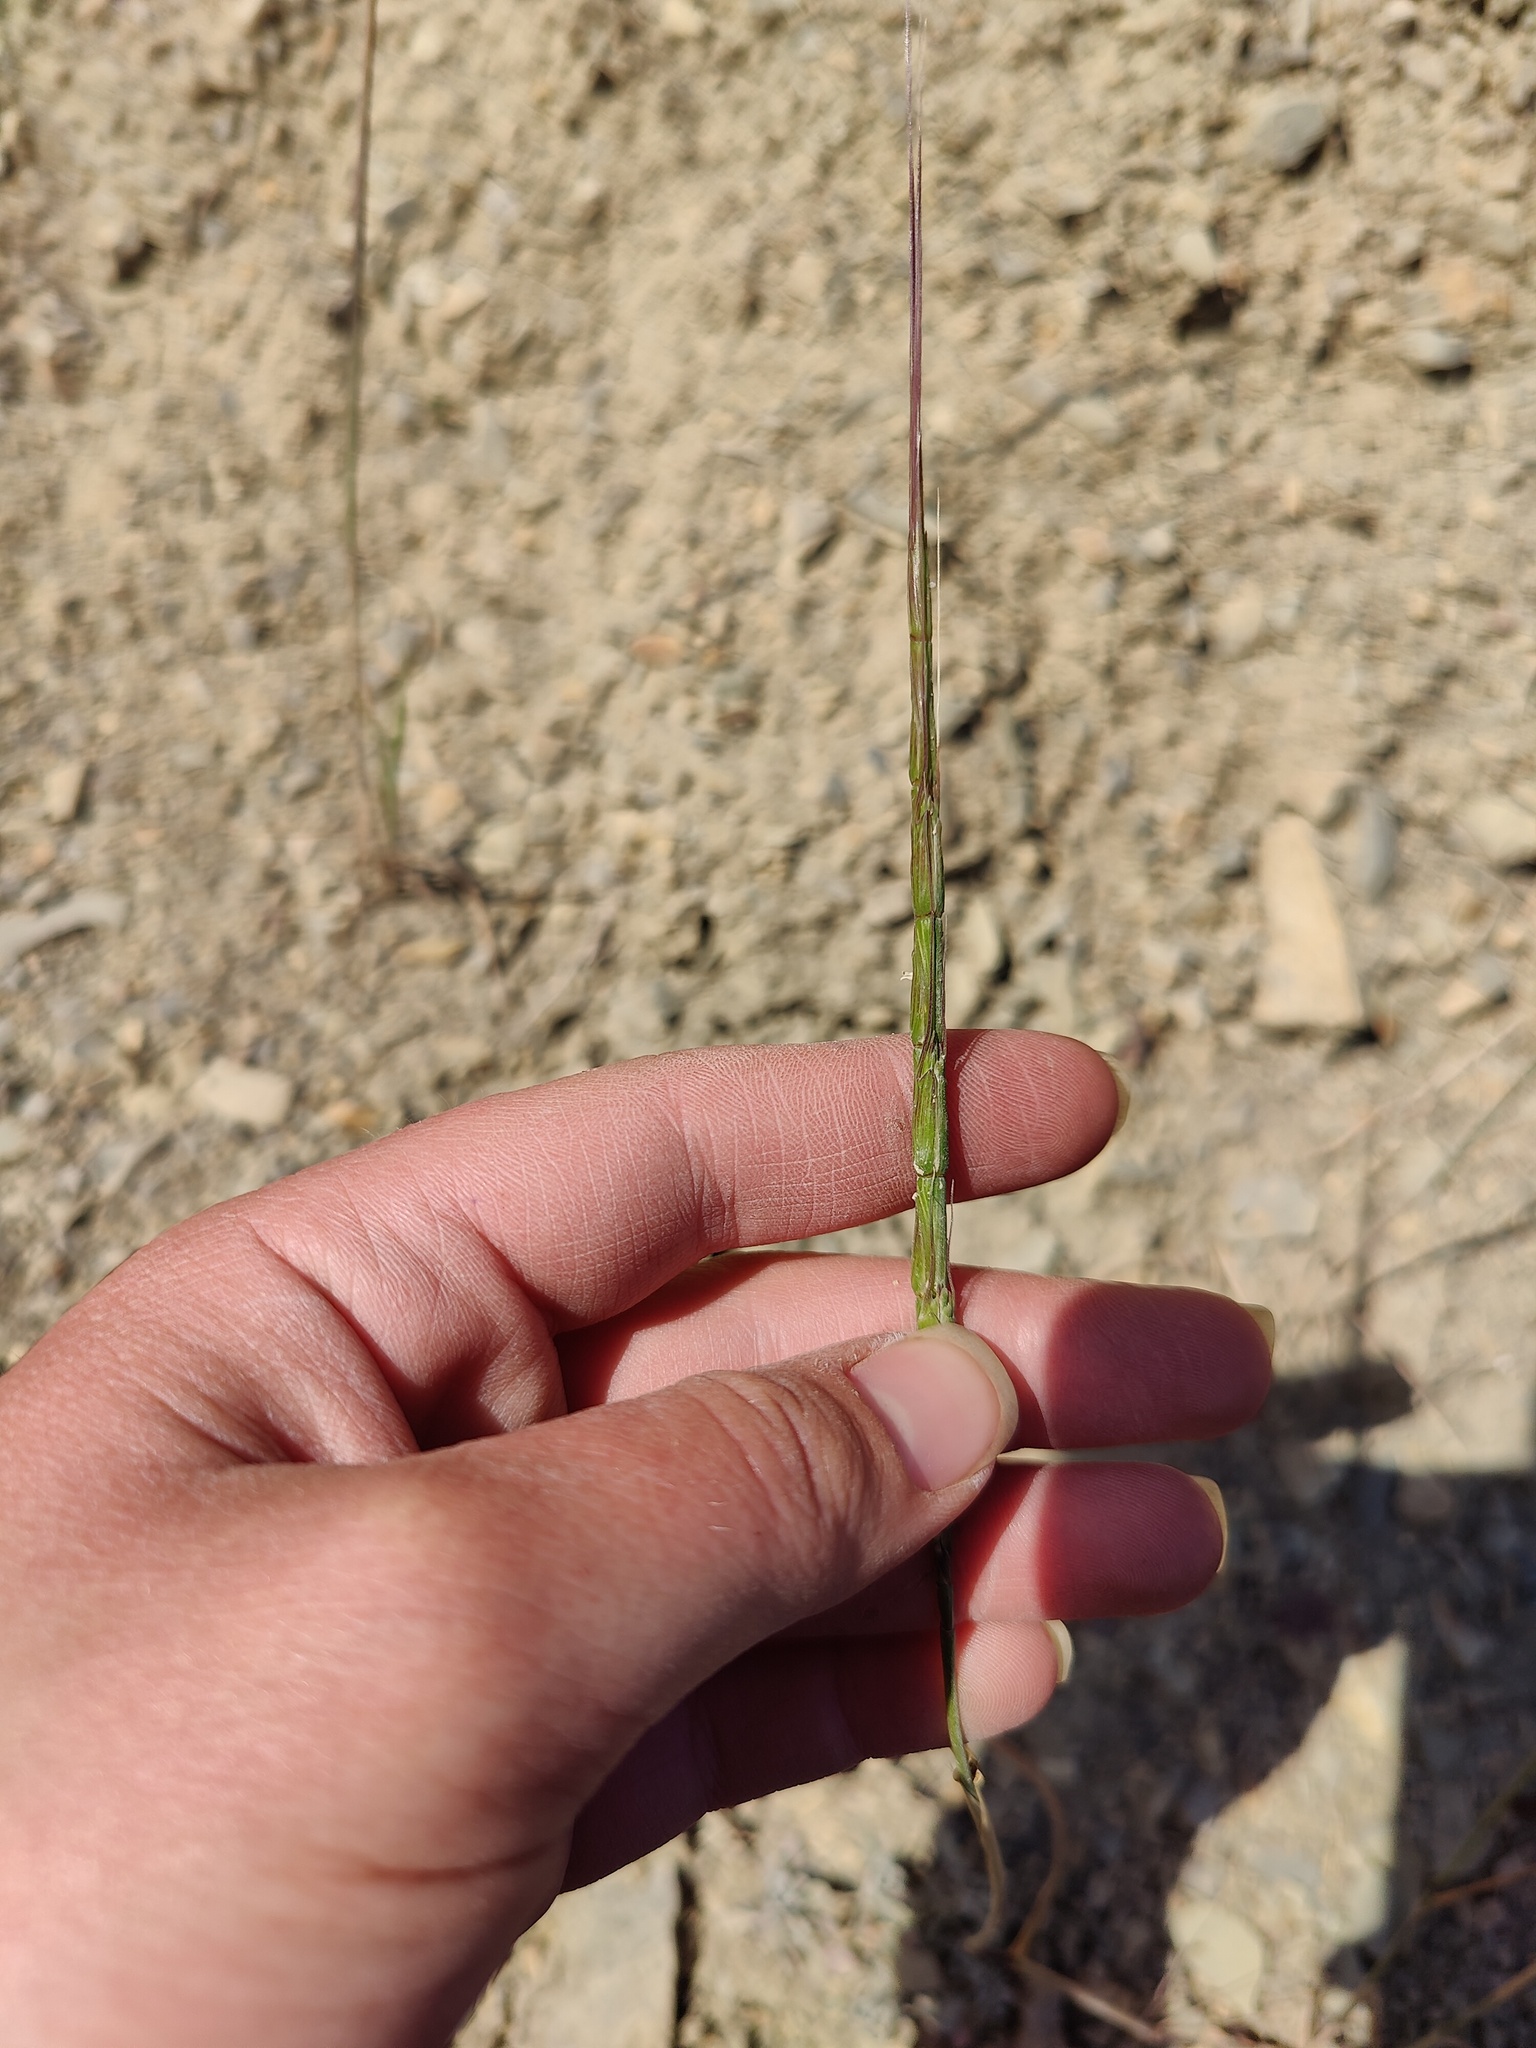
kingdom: Plantae
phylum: Tracheophyta
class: Liliopsida
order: Poales
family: Poaceae
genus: Aegilops
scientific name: Aegilops cylindrica
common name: Jointed goatgrass
